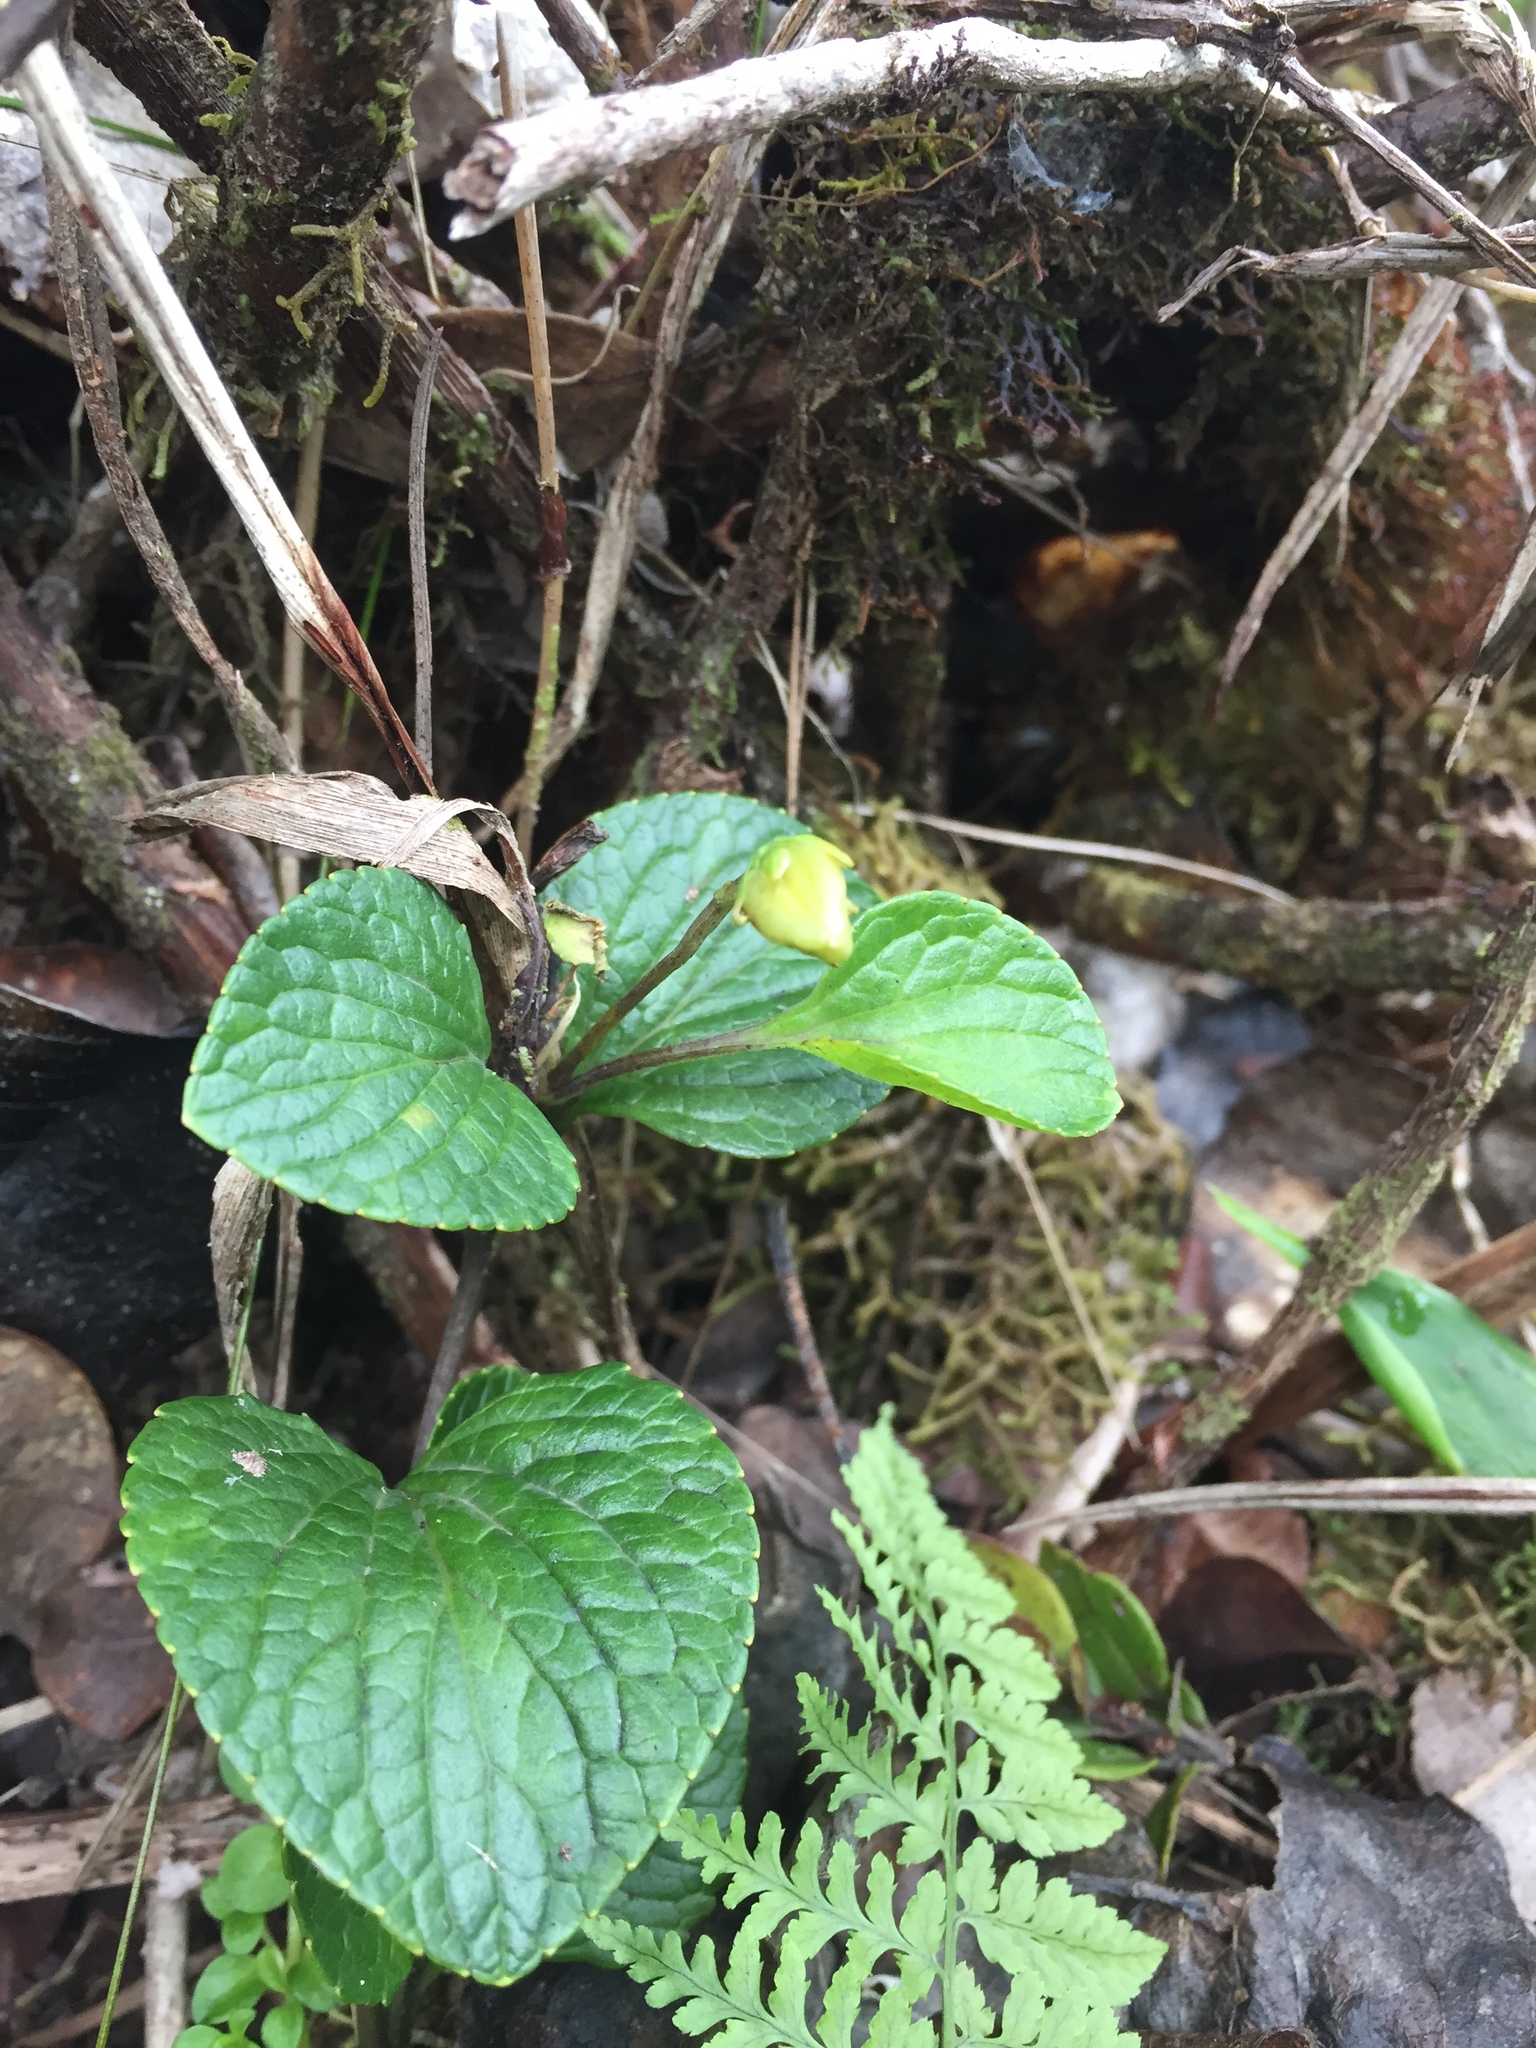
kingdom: Plantae
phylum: Tracheophyta
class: Magnoliopsida
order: Malpighiales
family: Violaceae
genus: Viola
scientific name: Viola kauaensis
